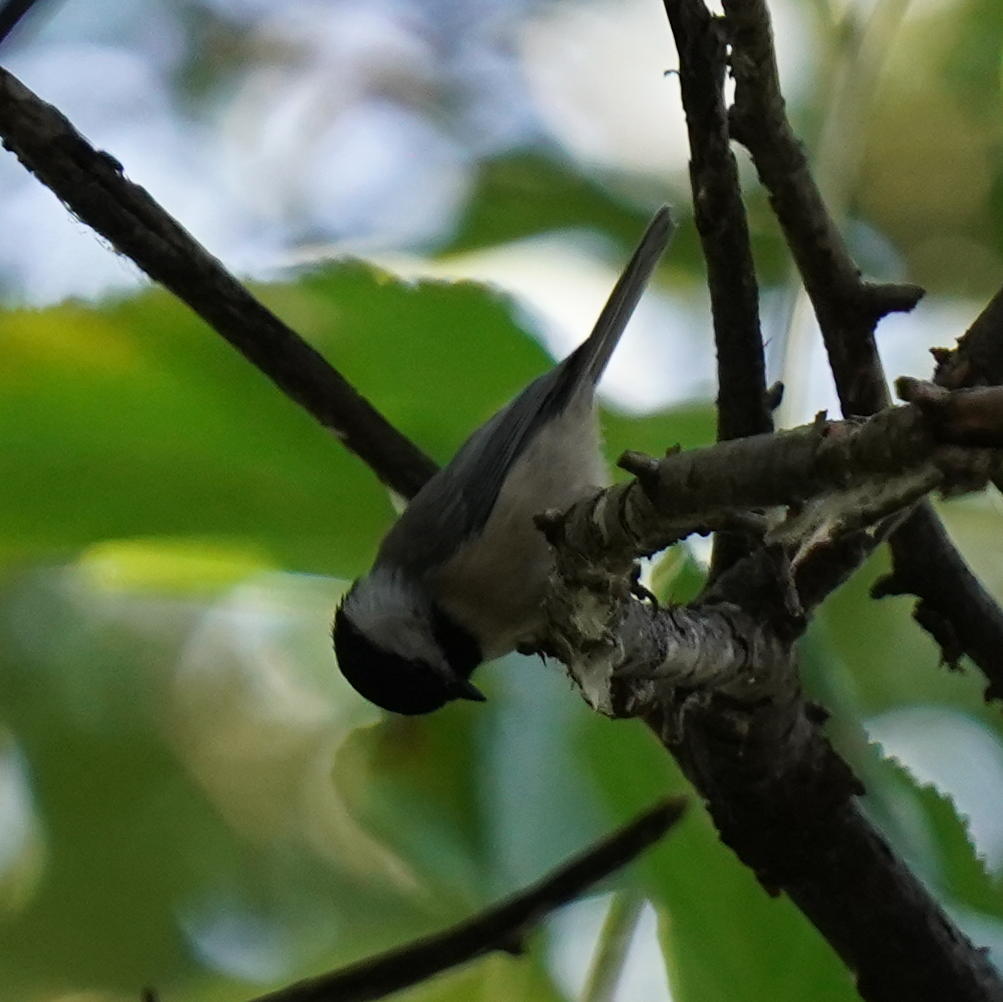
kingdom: Animalia
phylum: Chordata
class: Aves
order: Passeriformes
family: Paridae
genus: Poecile
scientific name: Poecile carolinensis
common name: Carolina chickadee
